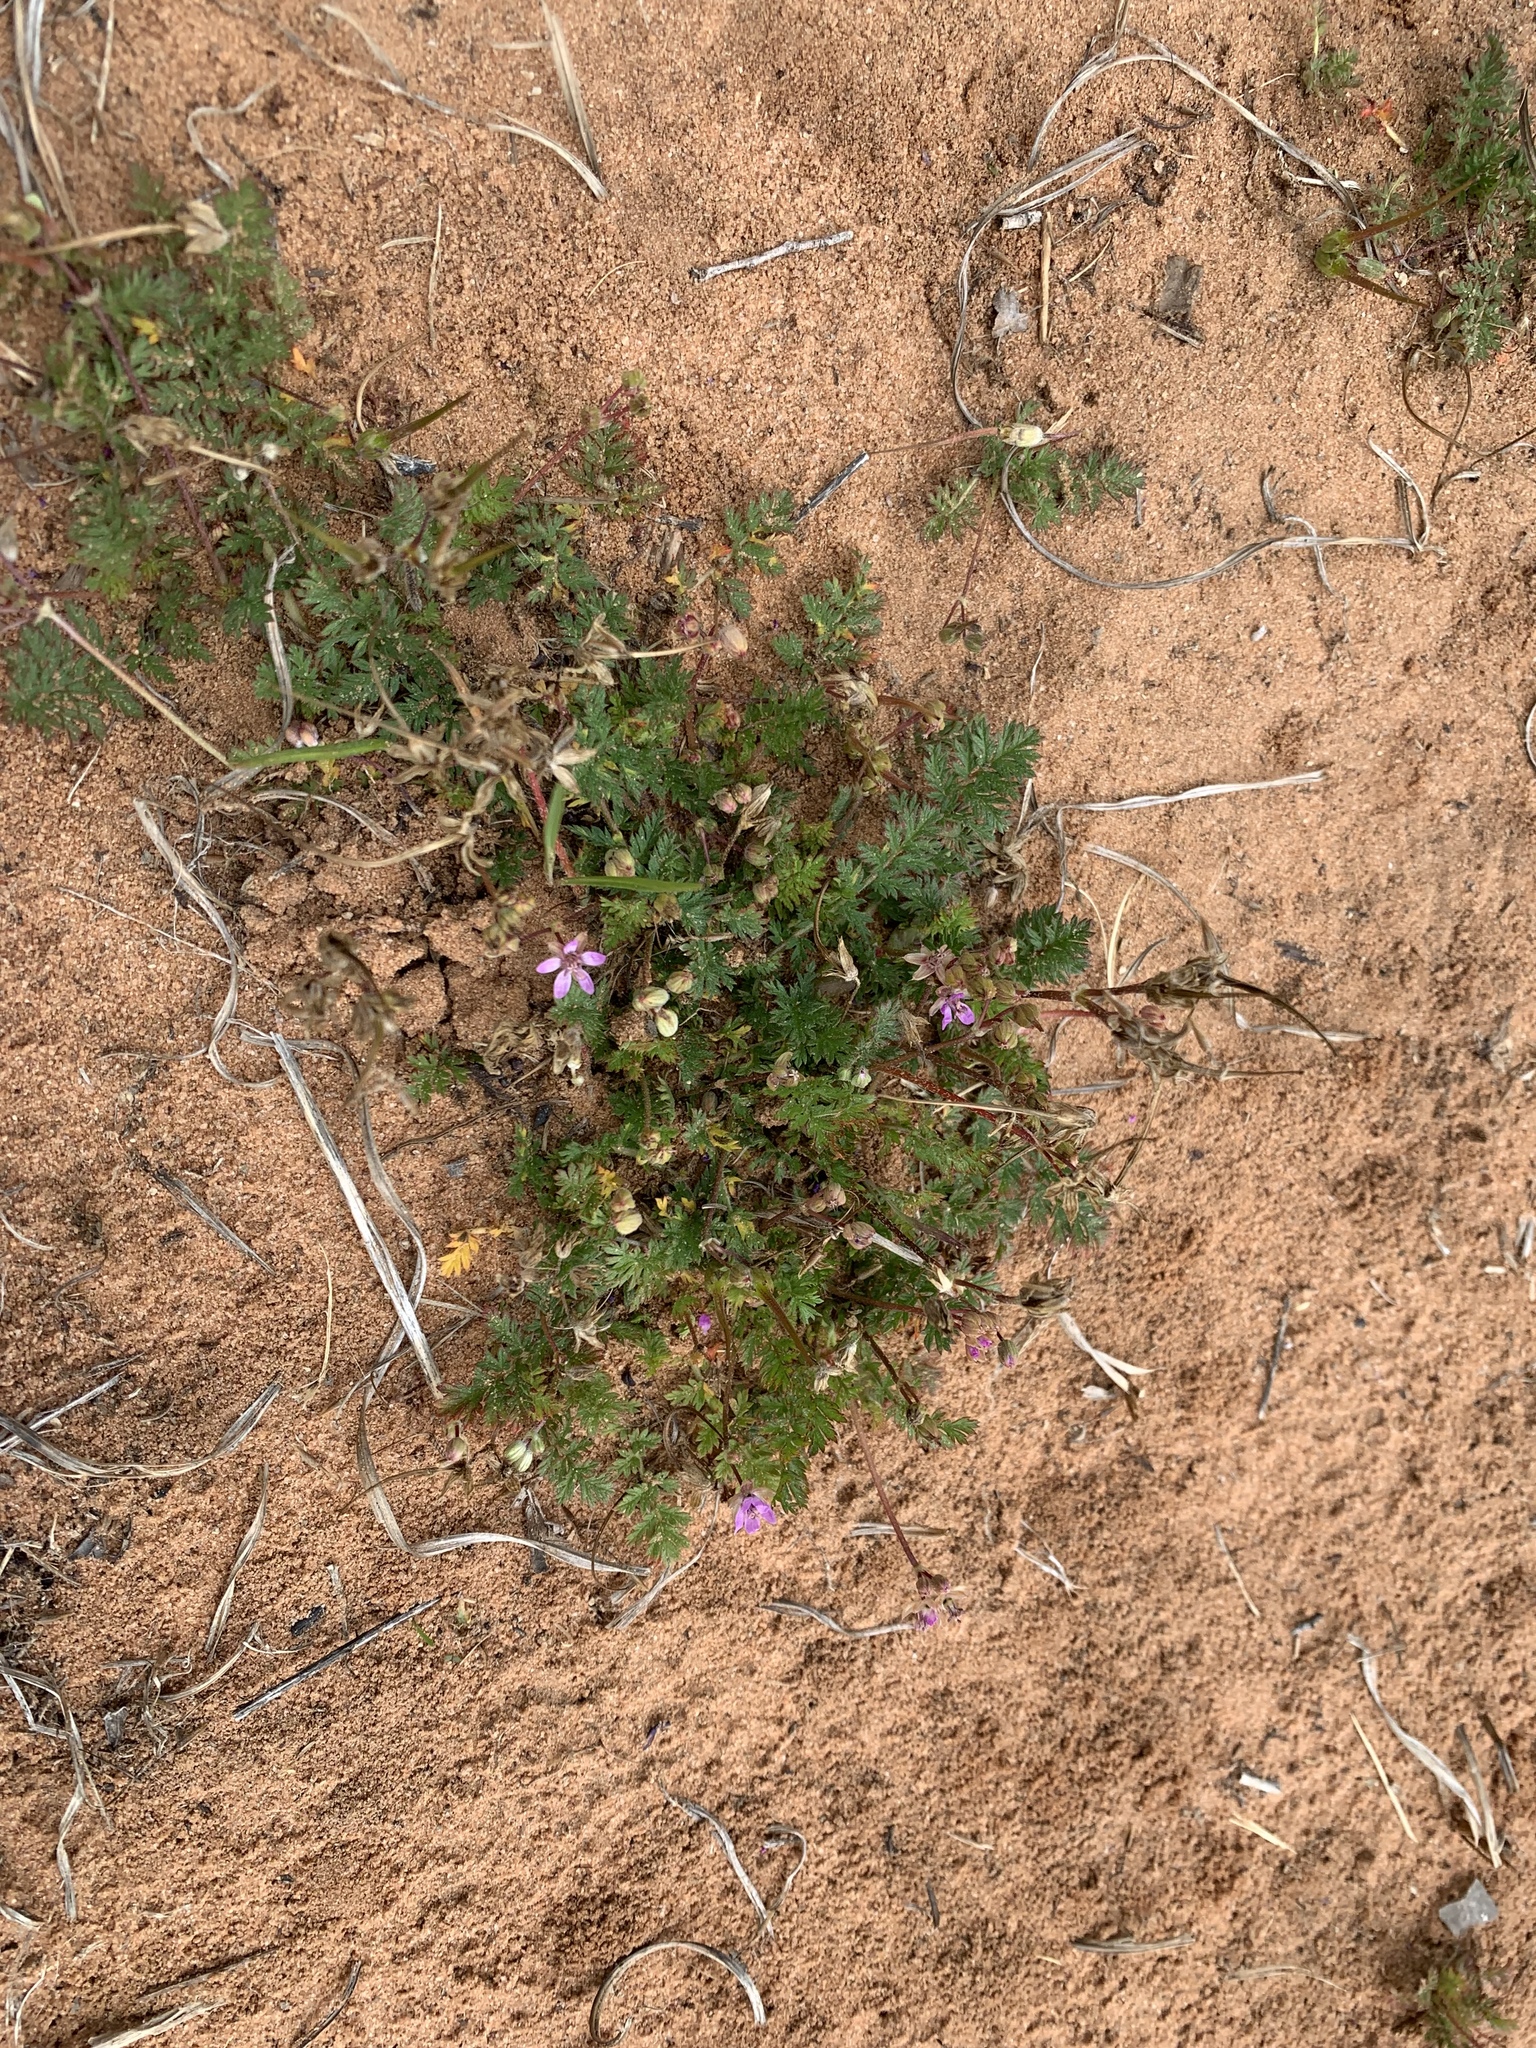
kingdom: Plantae
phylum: Tracheophyta
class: Magnoliopsida
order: Geraniales
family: Geraniaceae
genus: Erodium
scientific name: Erodium cicutarium
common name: Common stork's-bill
